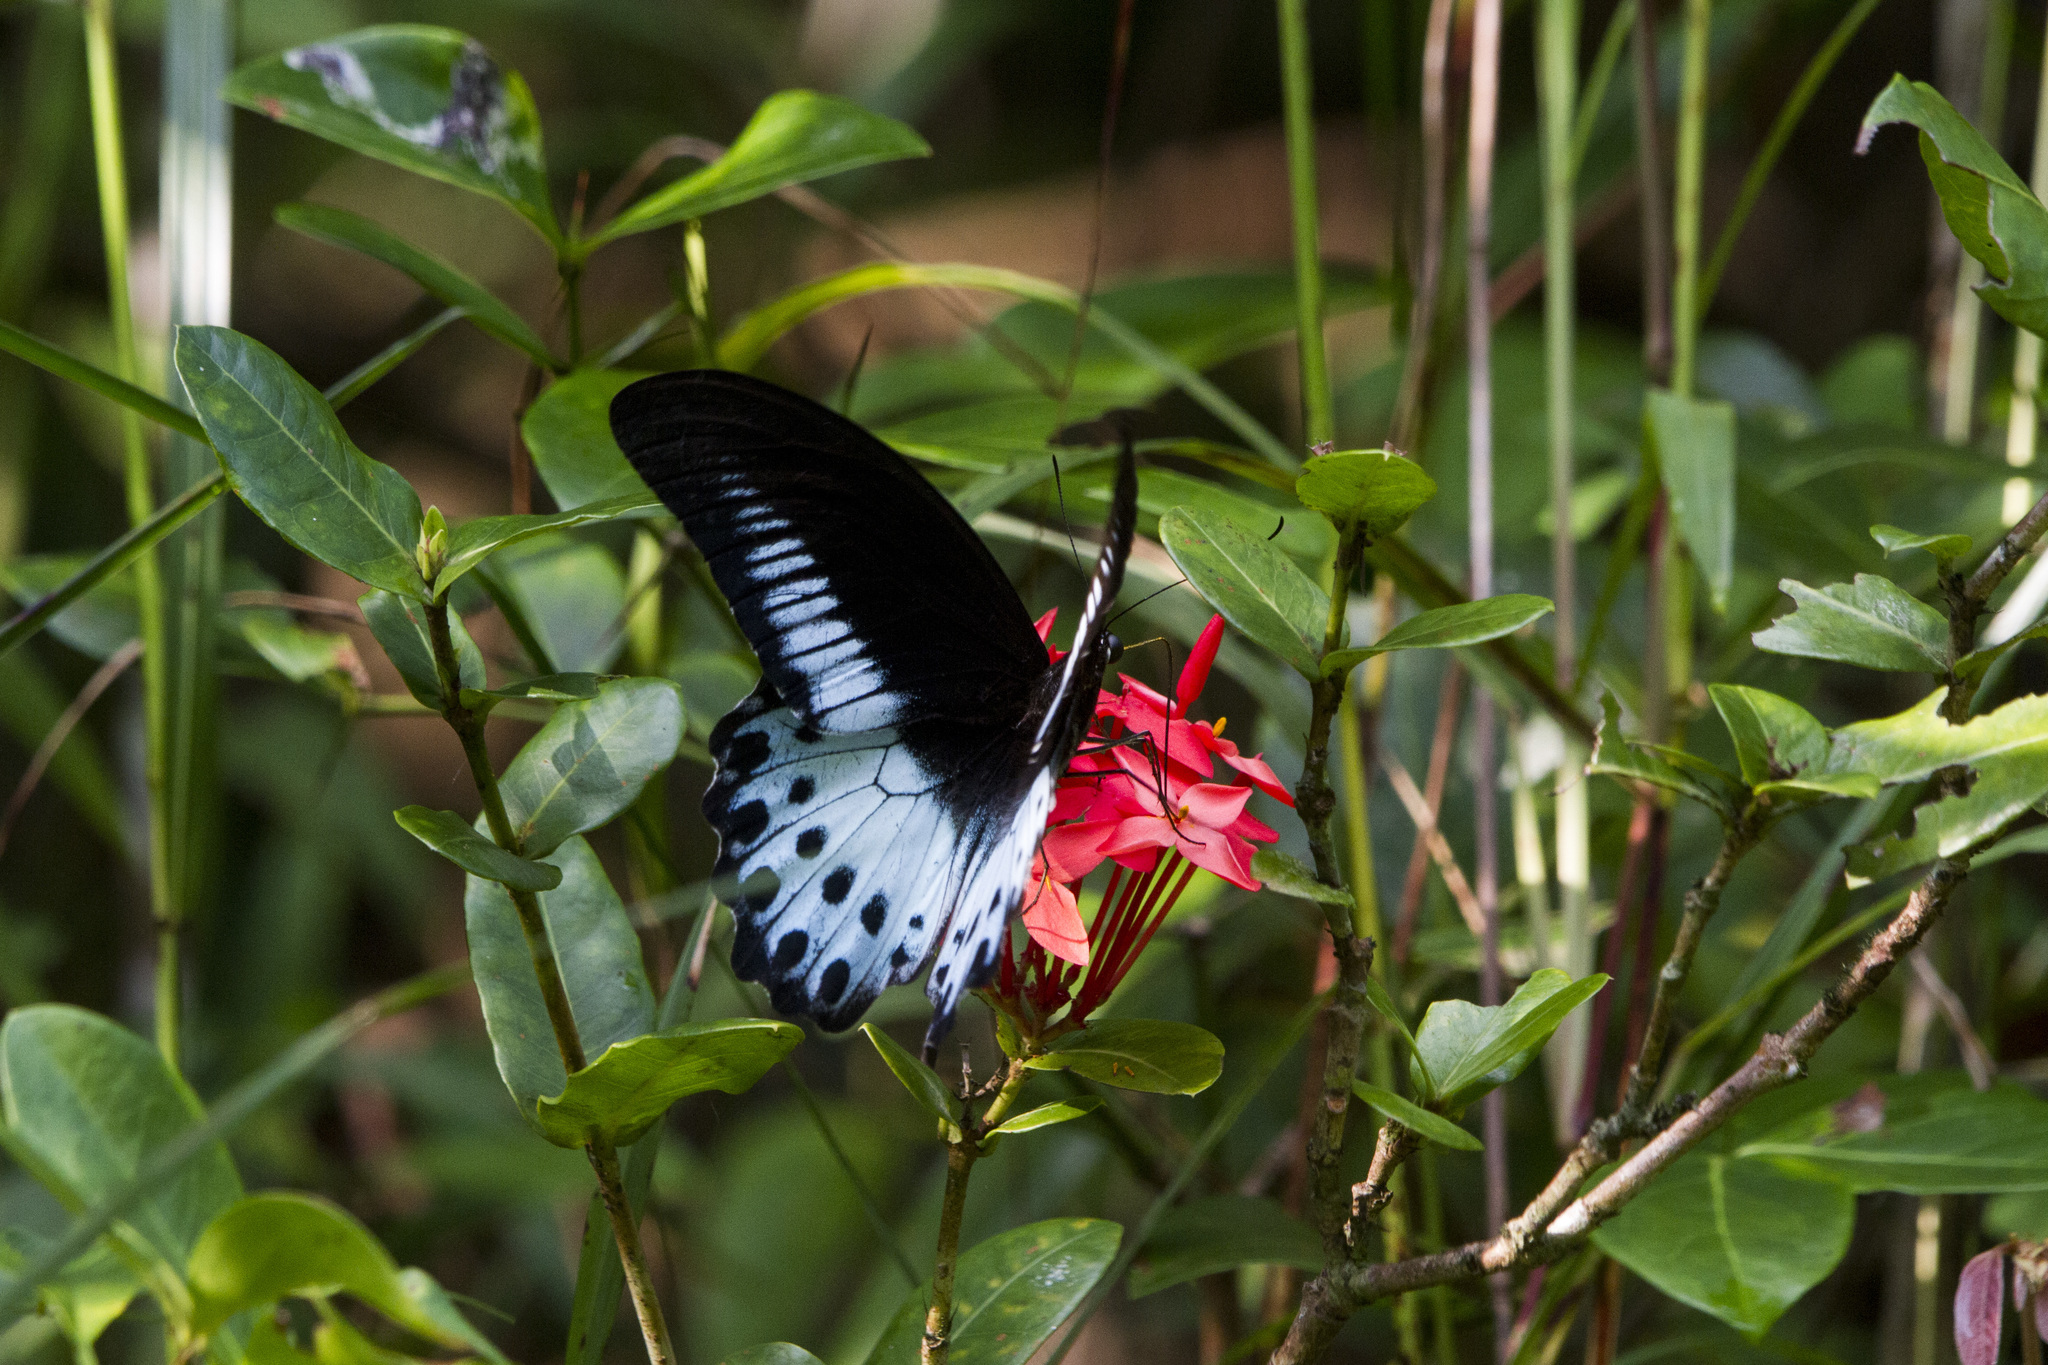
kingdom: Animalia
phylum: Arthropoda
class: Insecta
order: Lepidoptera
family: Papilionidae
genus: Papilio
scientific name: Papilio memnon
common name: Great mormon
